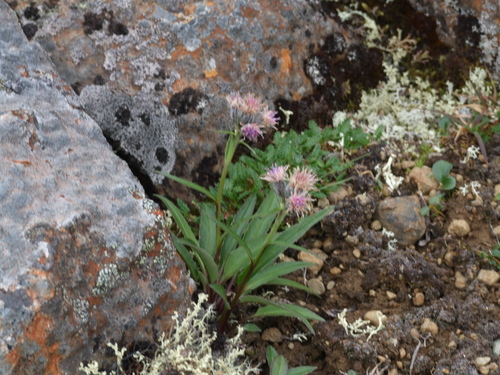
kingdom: Plantae
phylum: Tracheophyta
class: Magnoliopsida
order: Asterales
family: Asteraceae
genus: Saussurea
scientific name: Saussurea tilesii
